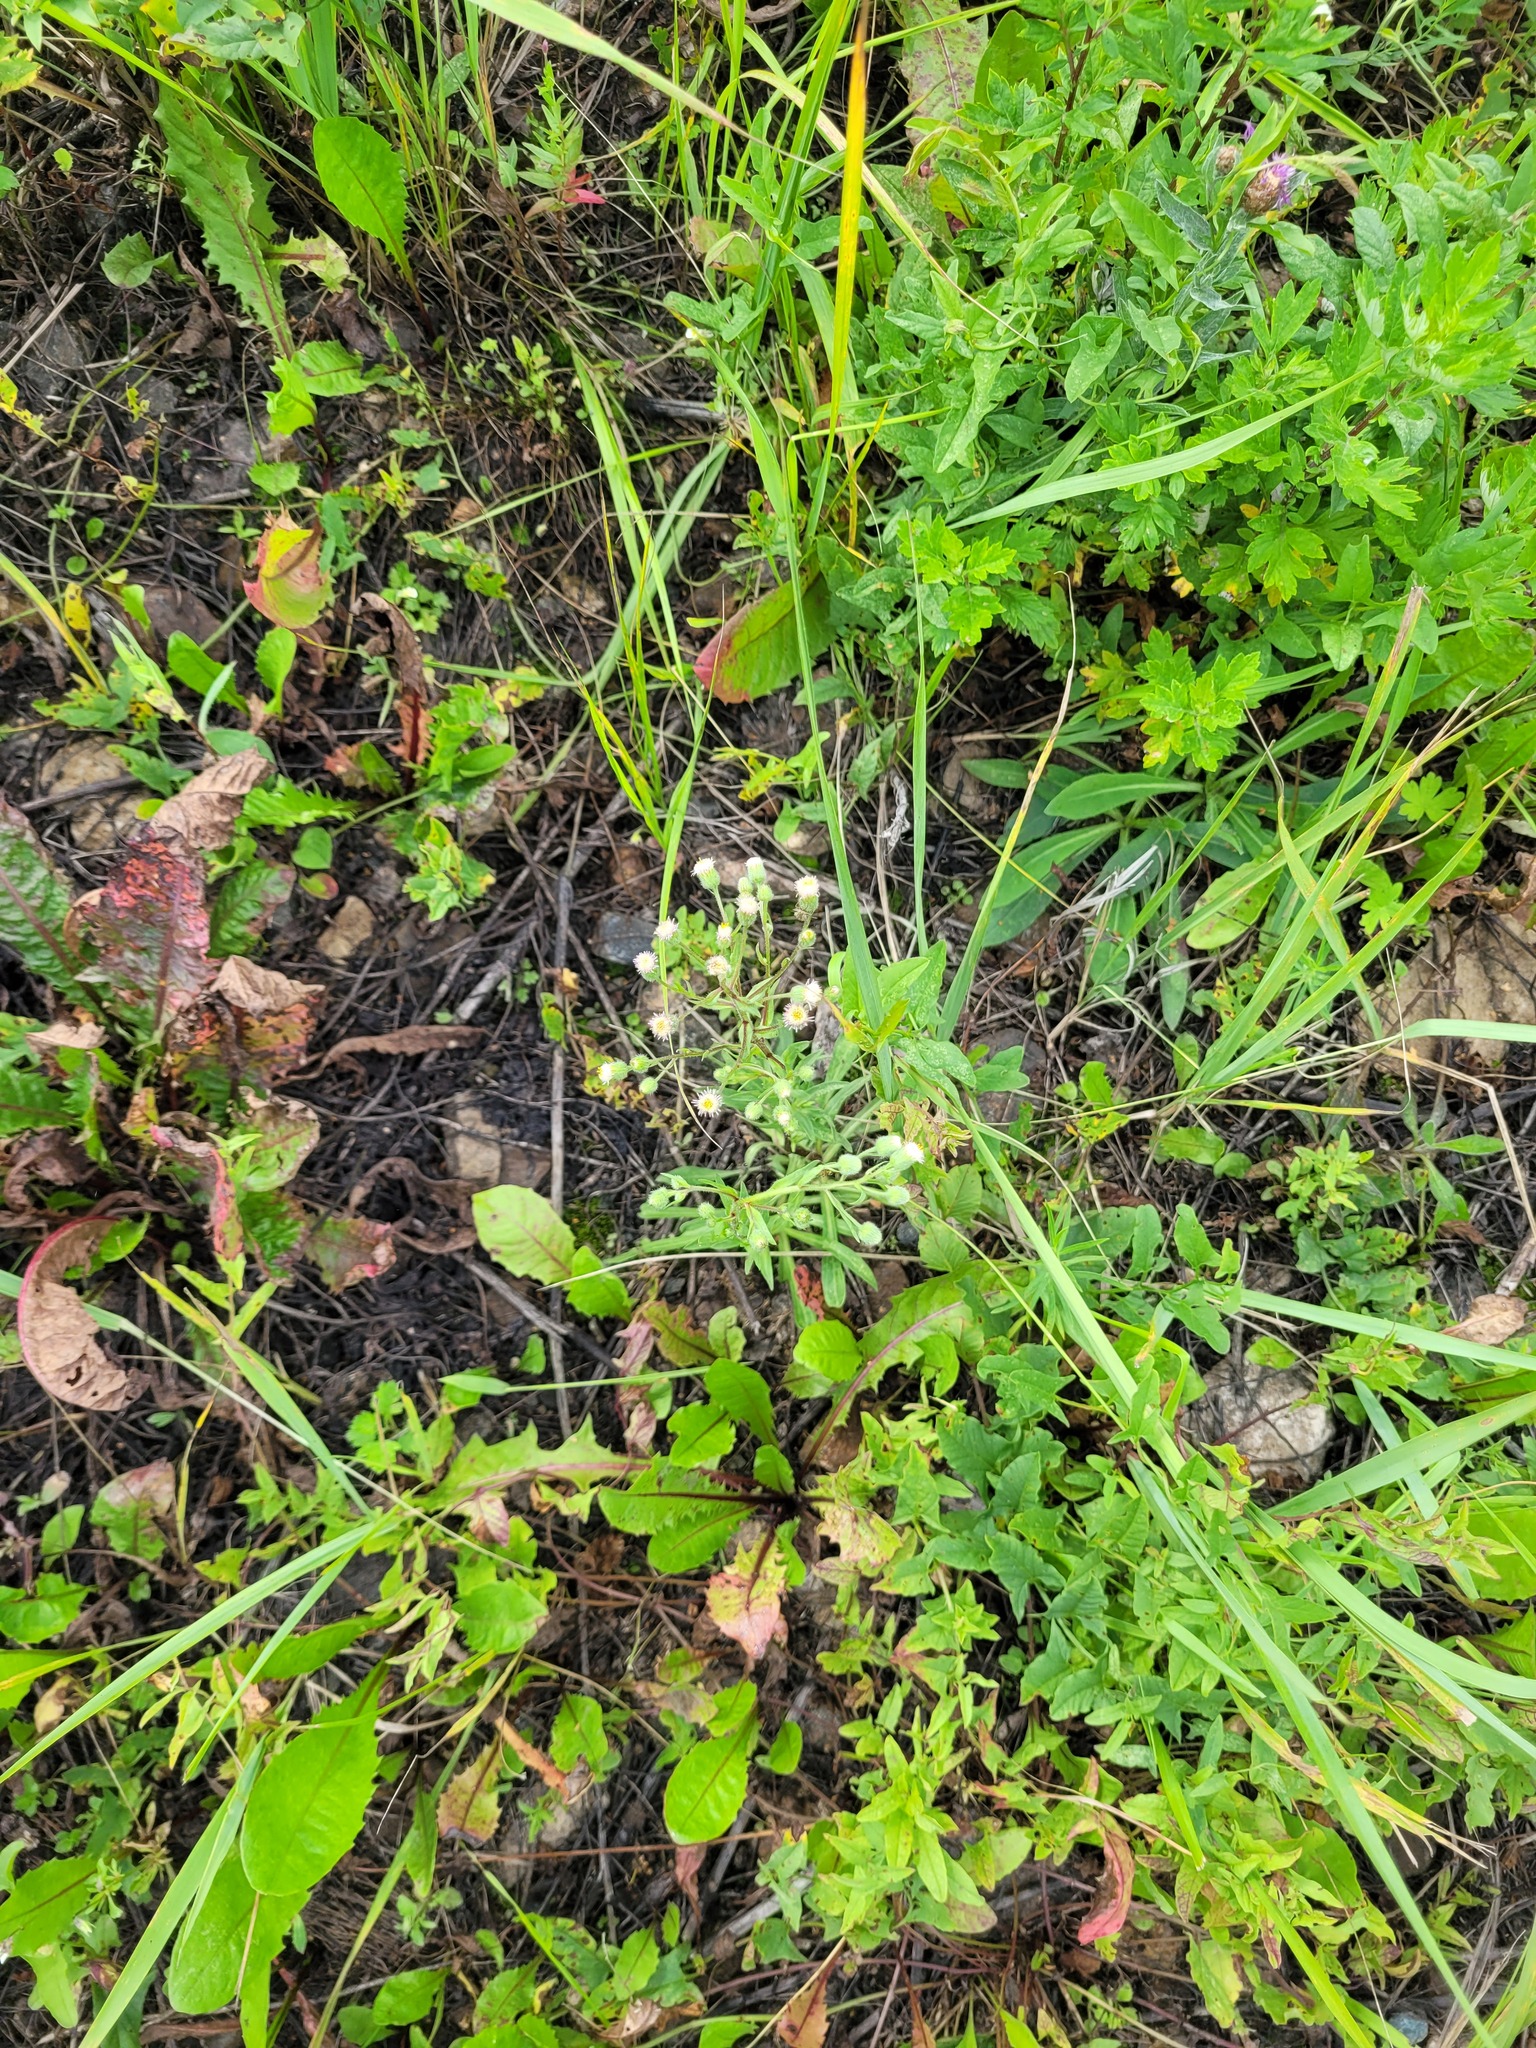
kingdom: Plantae
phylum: Tracheophyta
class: Magnoliopsida
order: Asterales
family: Asteraceae
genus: Erigeron
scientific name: Erigeron acris
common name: Blue fleabane
